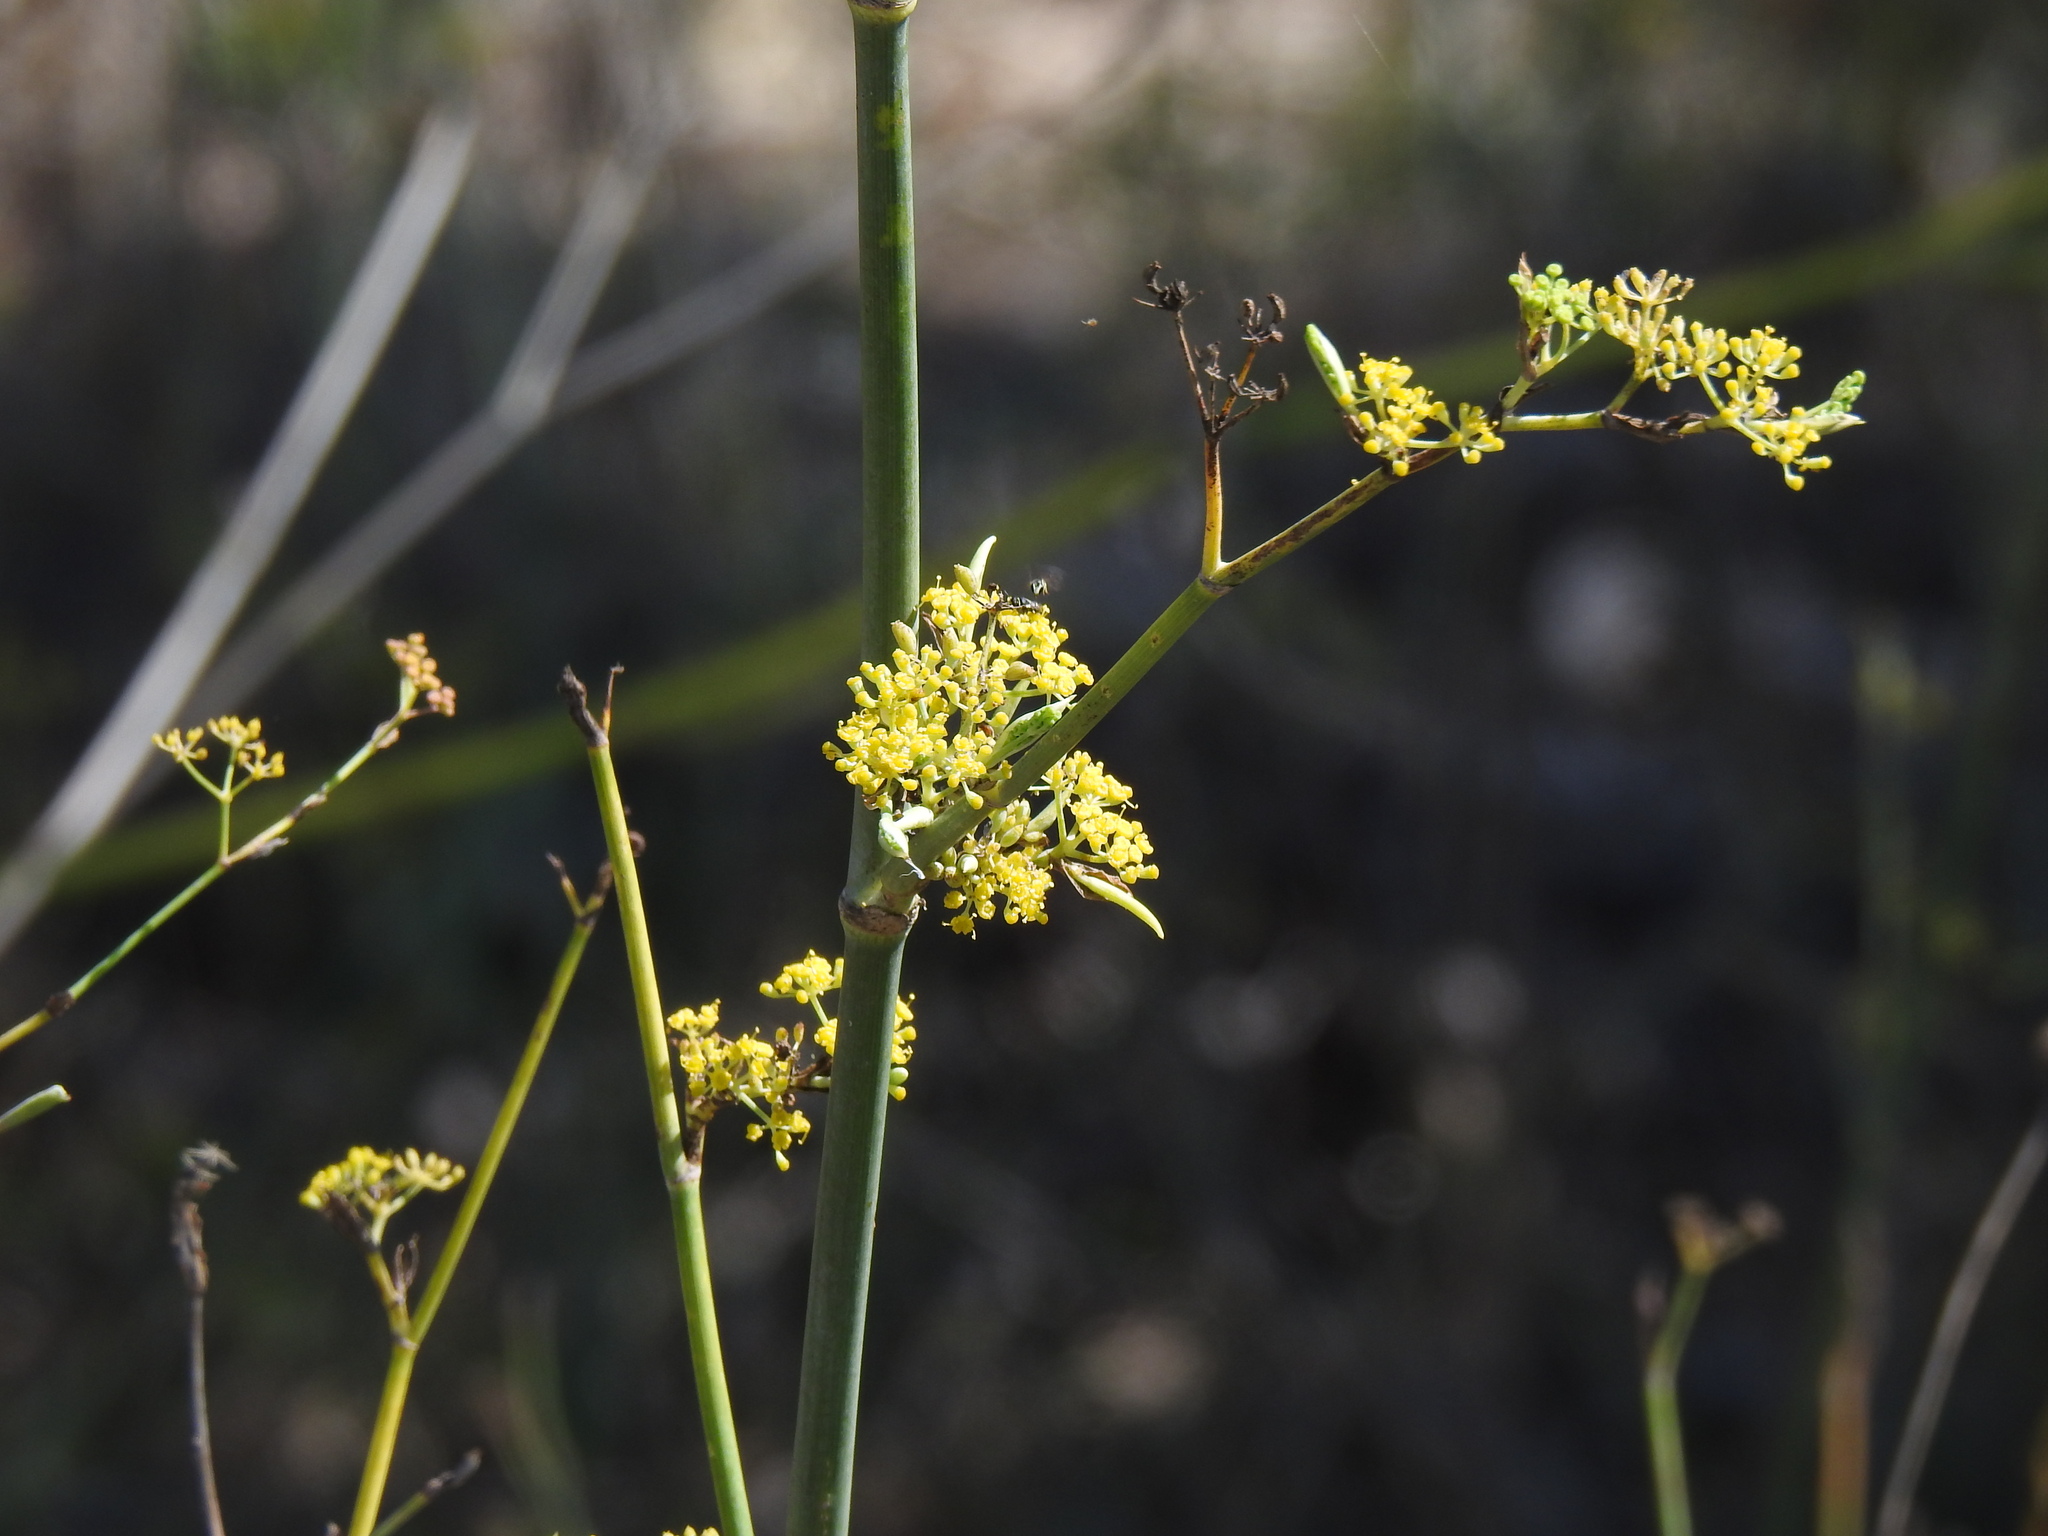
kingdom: Plantae
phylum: Tracheophyta
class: Magnoliopsida
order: Apiales
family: Apiaceae
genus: Foeniculum
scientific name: Foeniculum vulgare
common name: Fennel
